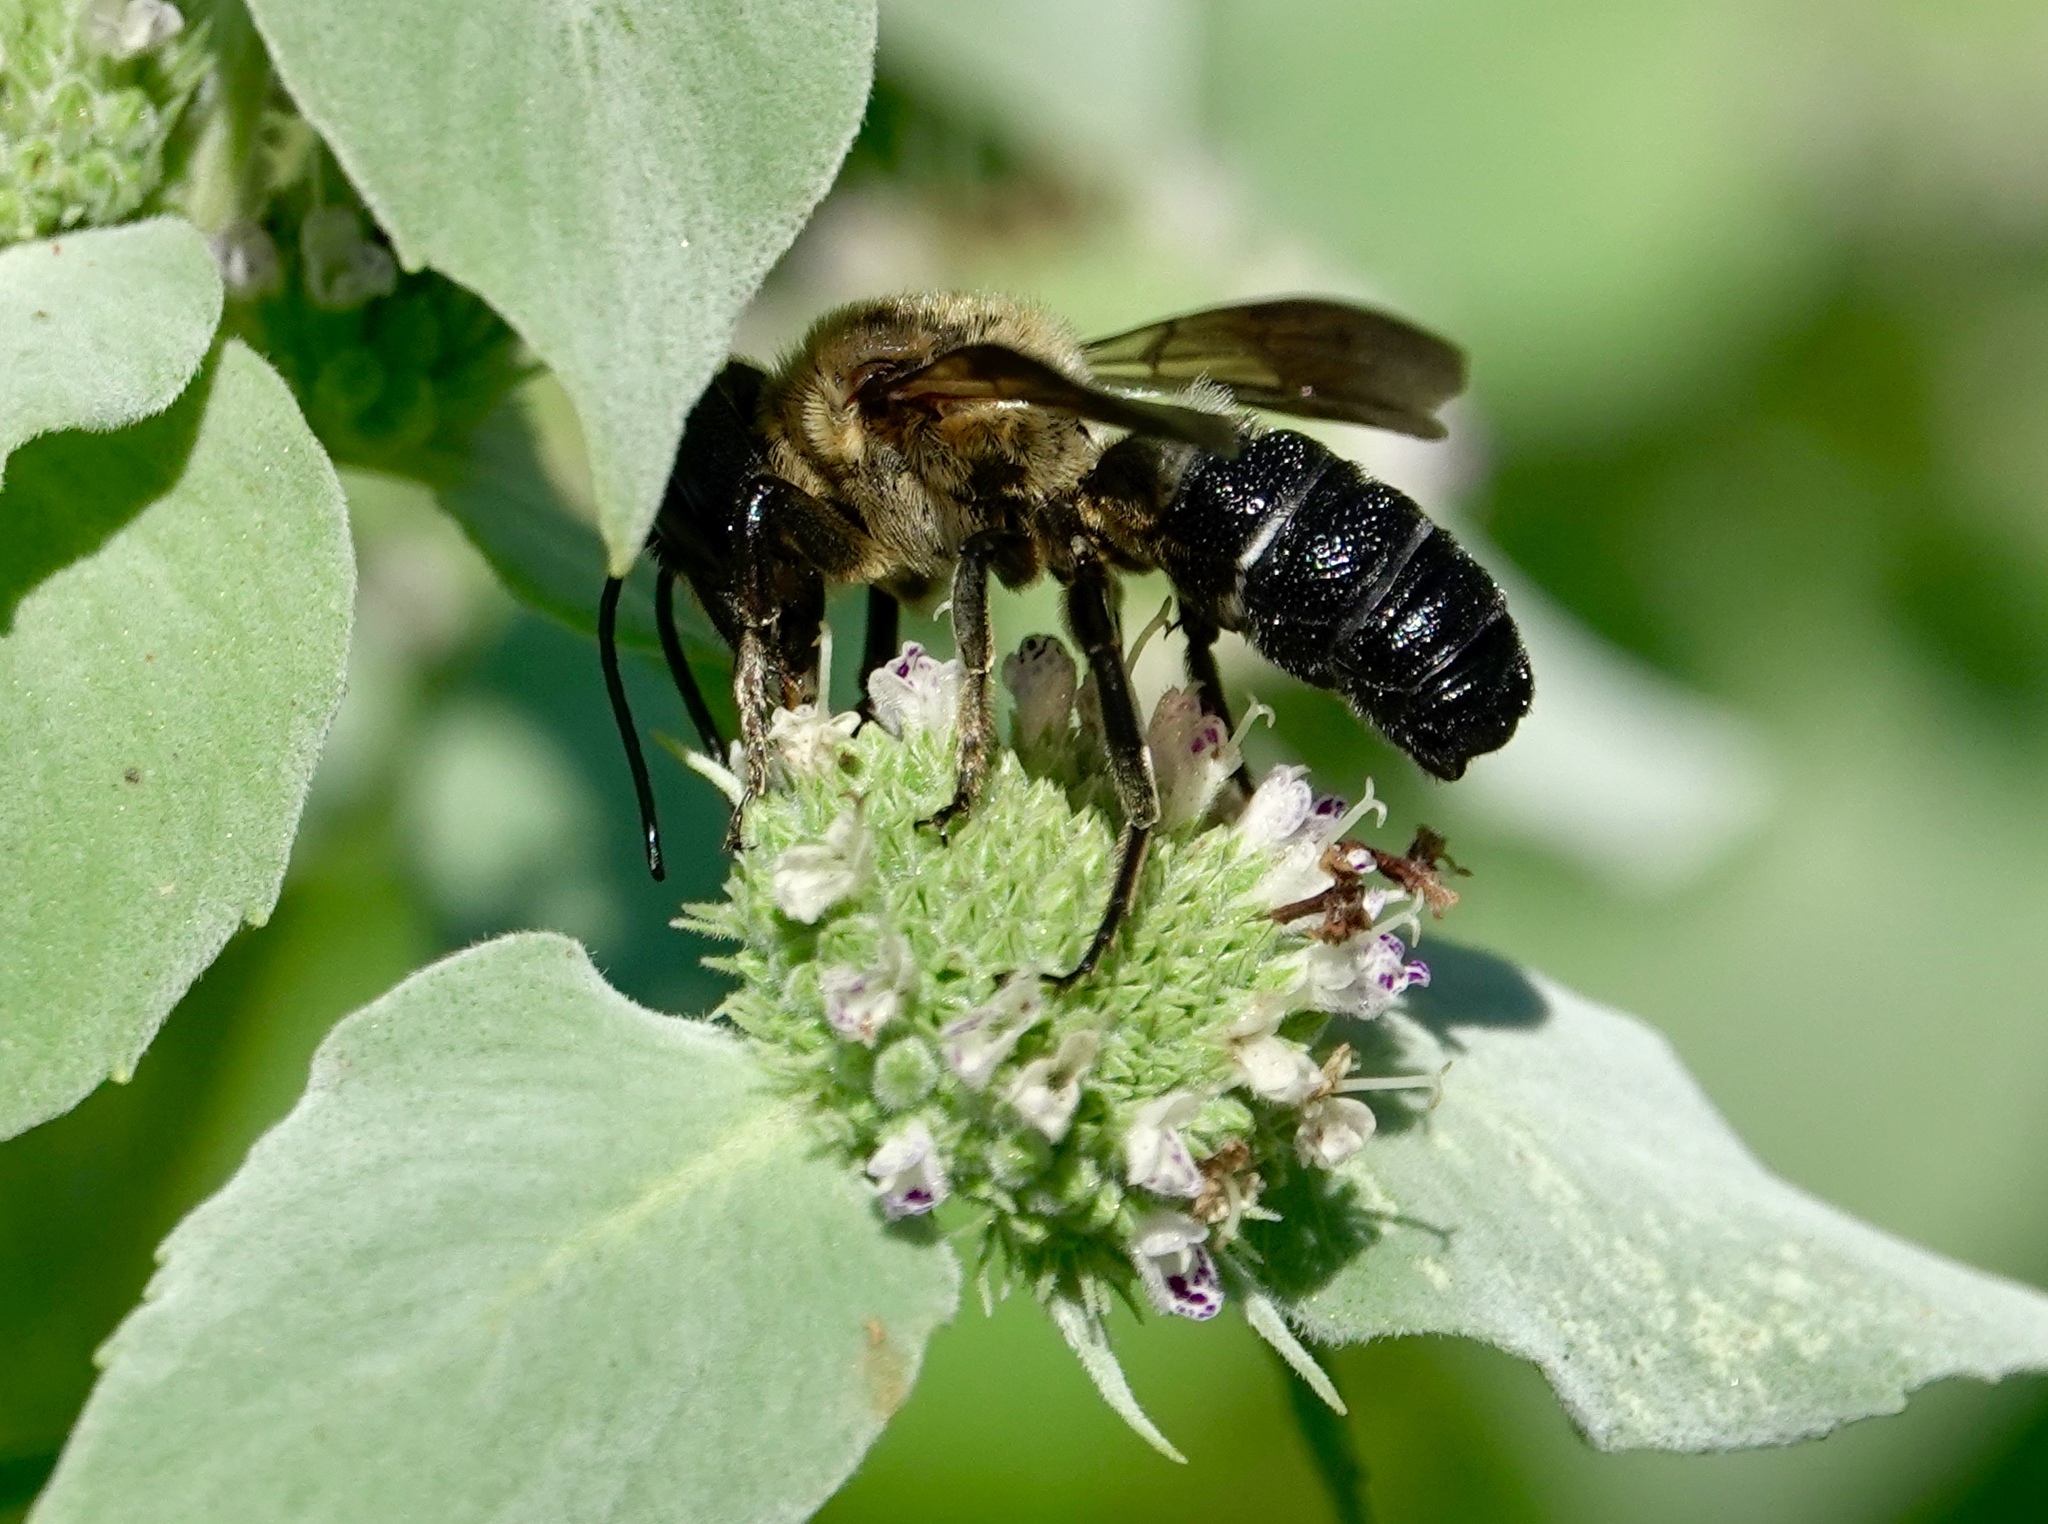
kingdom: Animalia
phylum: Arthropoda
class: Insecta
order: Hymenoptera
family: Megachilidae
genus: Megachile
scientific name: Megachile sculpturalis
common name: Sculptured resin bee
